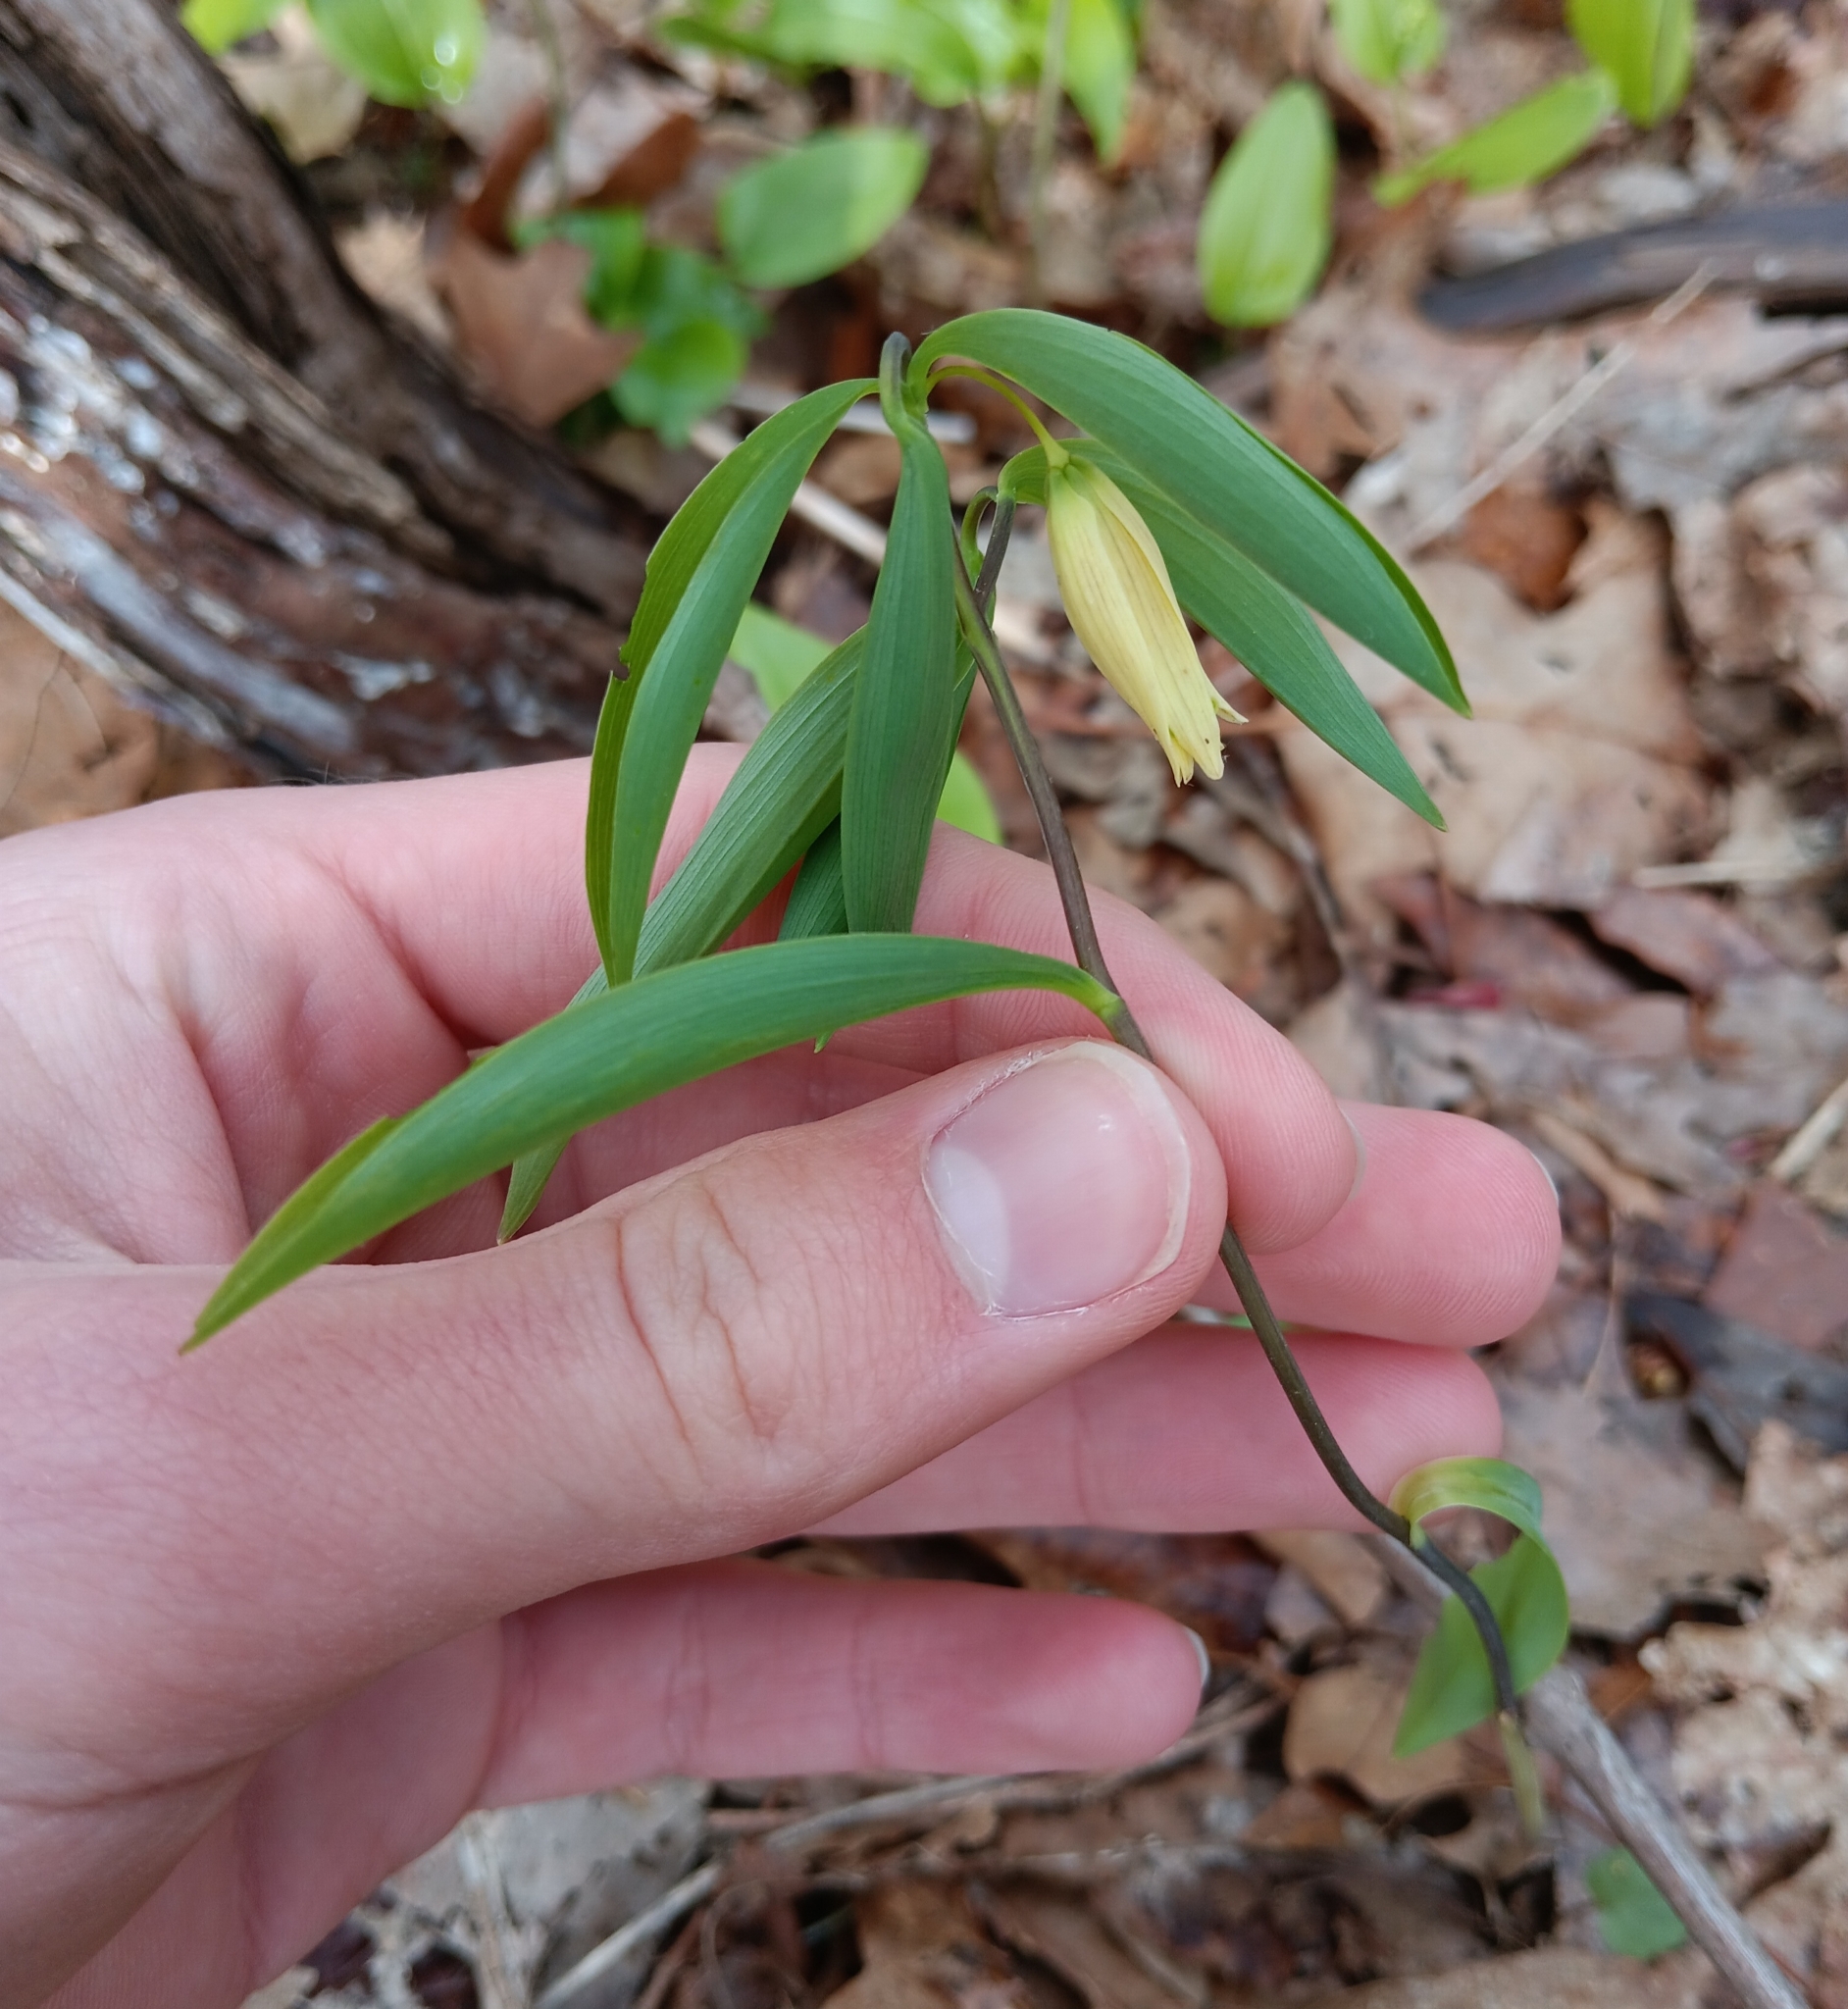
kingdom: Plantae
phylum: Tracheophyta
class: Liliopsida
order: Liliales
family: Colchicaceae
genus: Uvularia
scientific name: Uvularia sessilifolia
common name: Straw-lily
